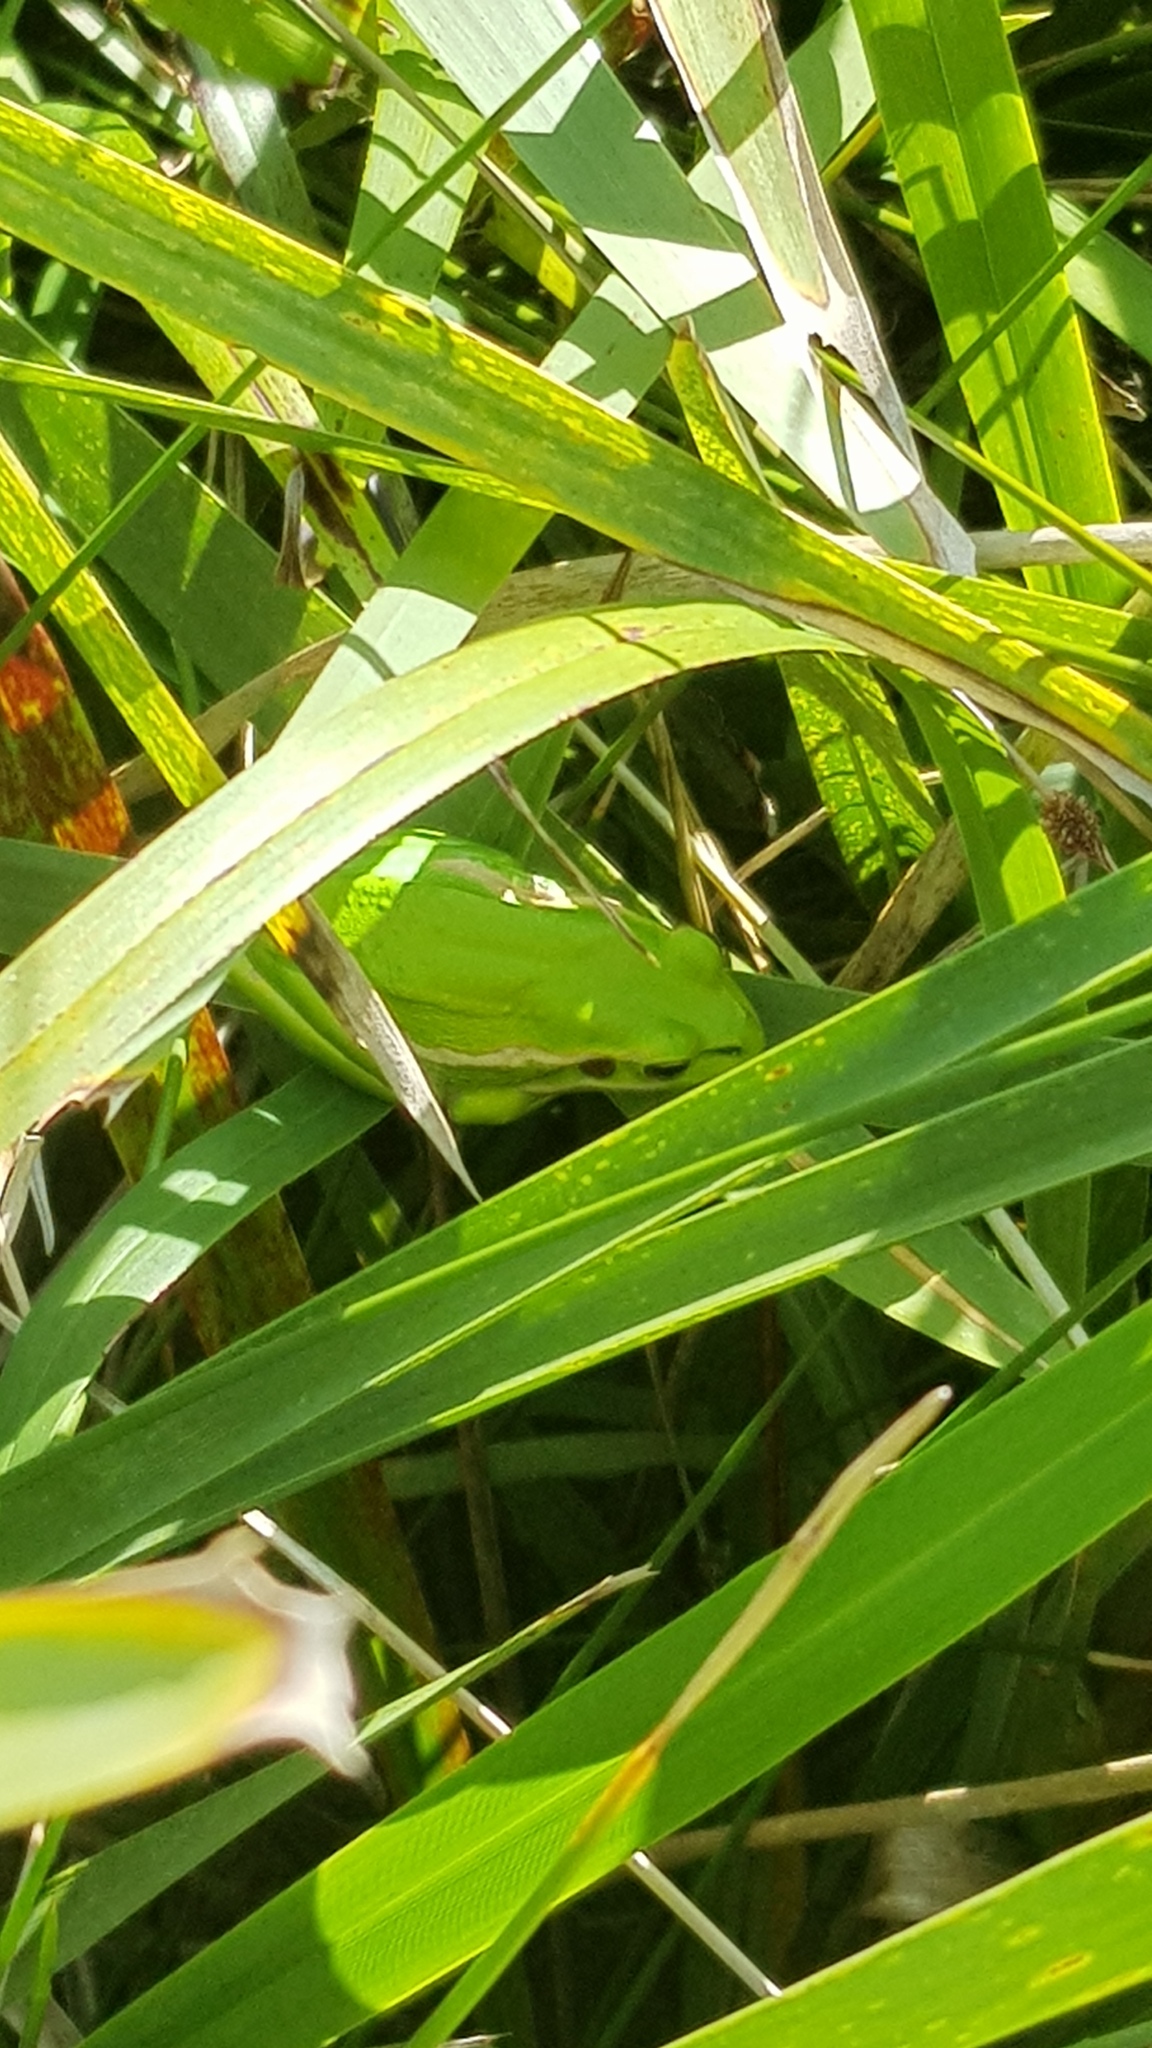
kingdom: Animalia
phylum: Chordata
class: Amphibia
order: Anura
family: Pelodryadidae
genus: Ranoidea
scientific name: Ranoidea aurea
